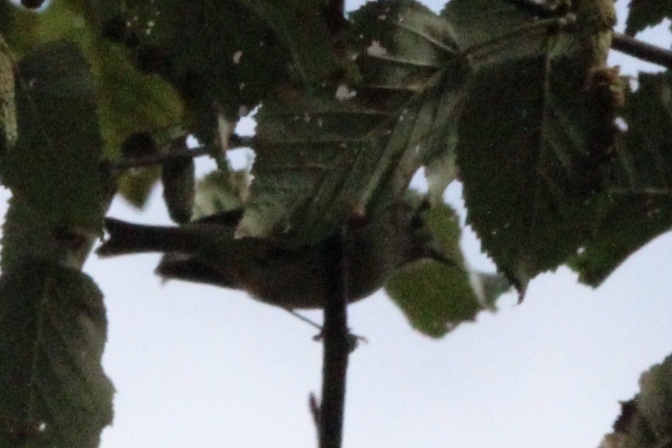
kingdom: Animalia
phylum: Chordata
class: Aves
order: Passeriformes
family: Regulidae
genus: Regulus
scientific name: Regulus calendula
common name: Ruby-crowned kinglet
